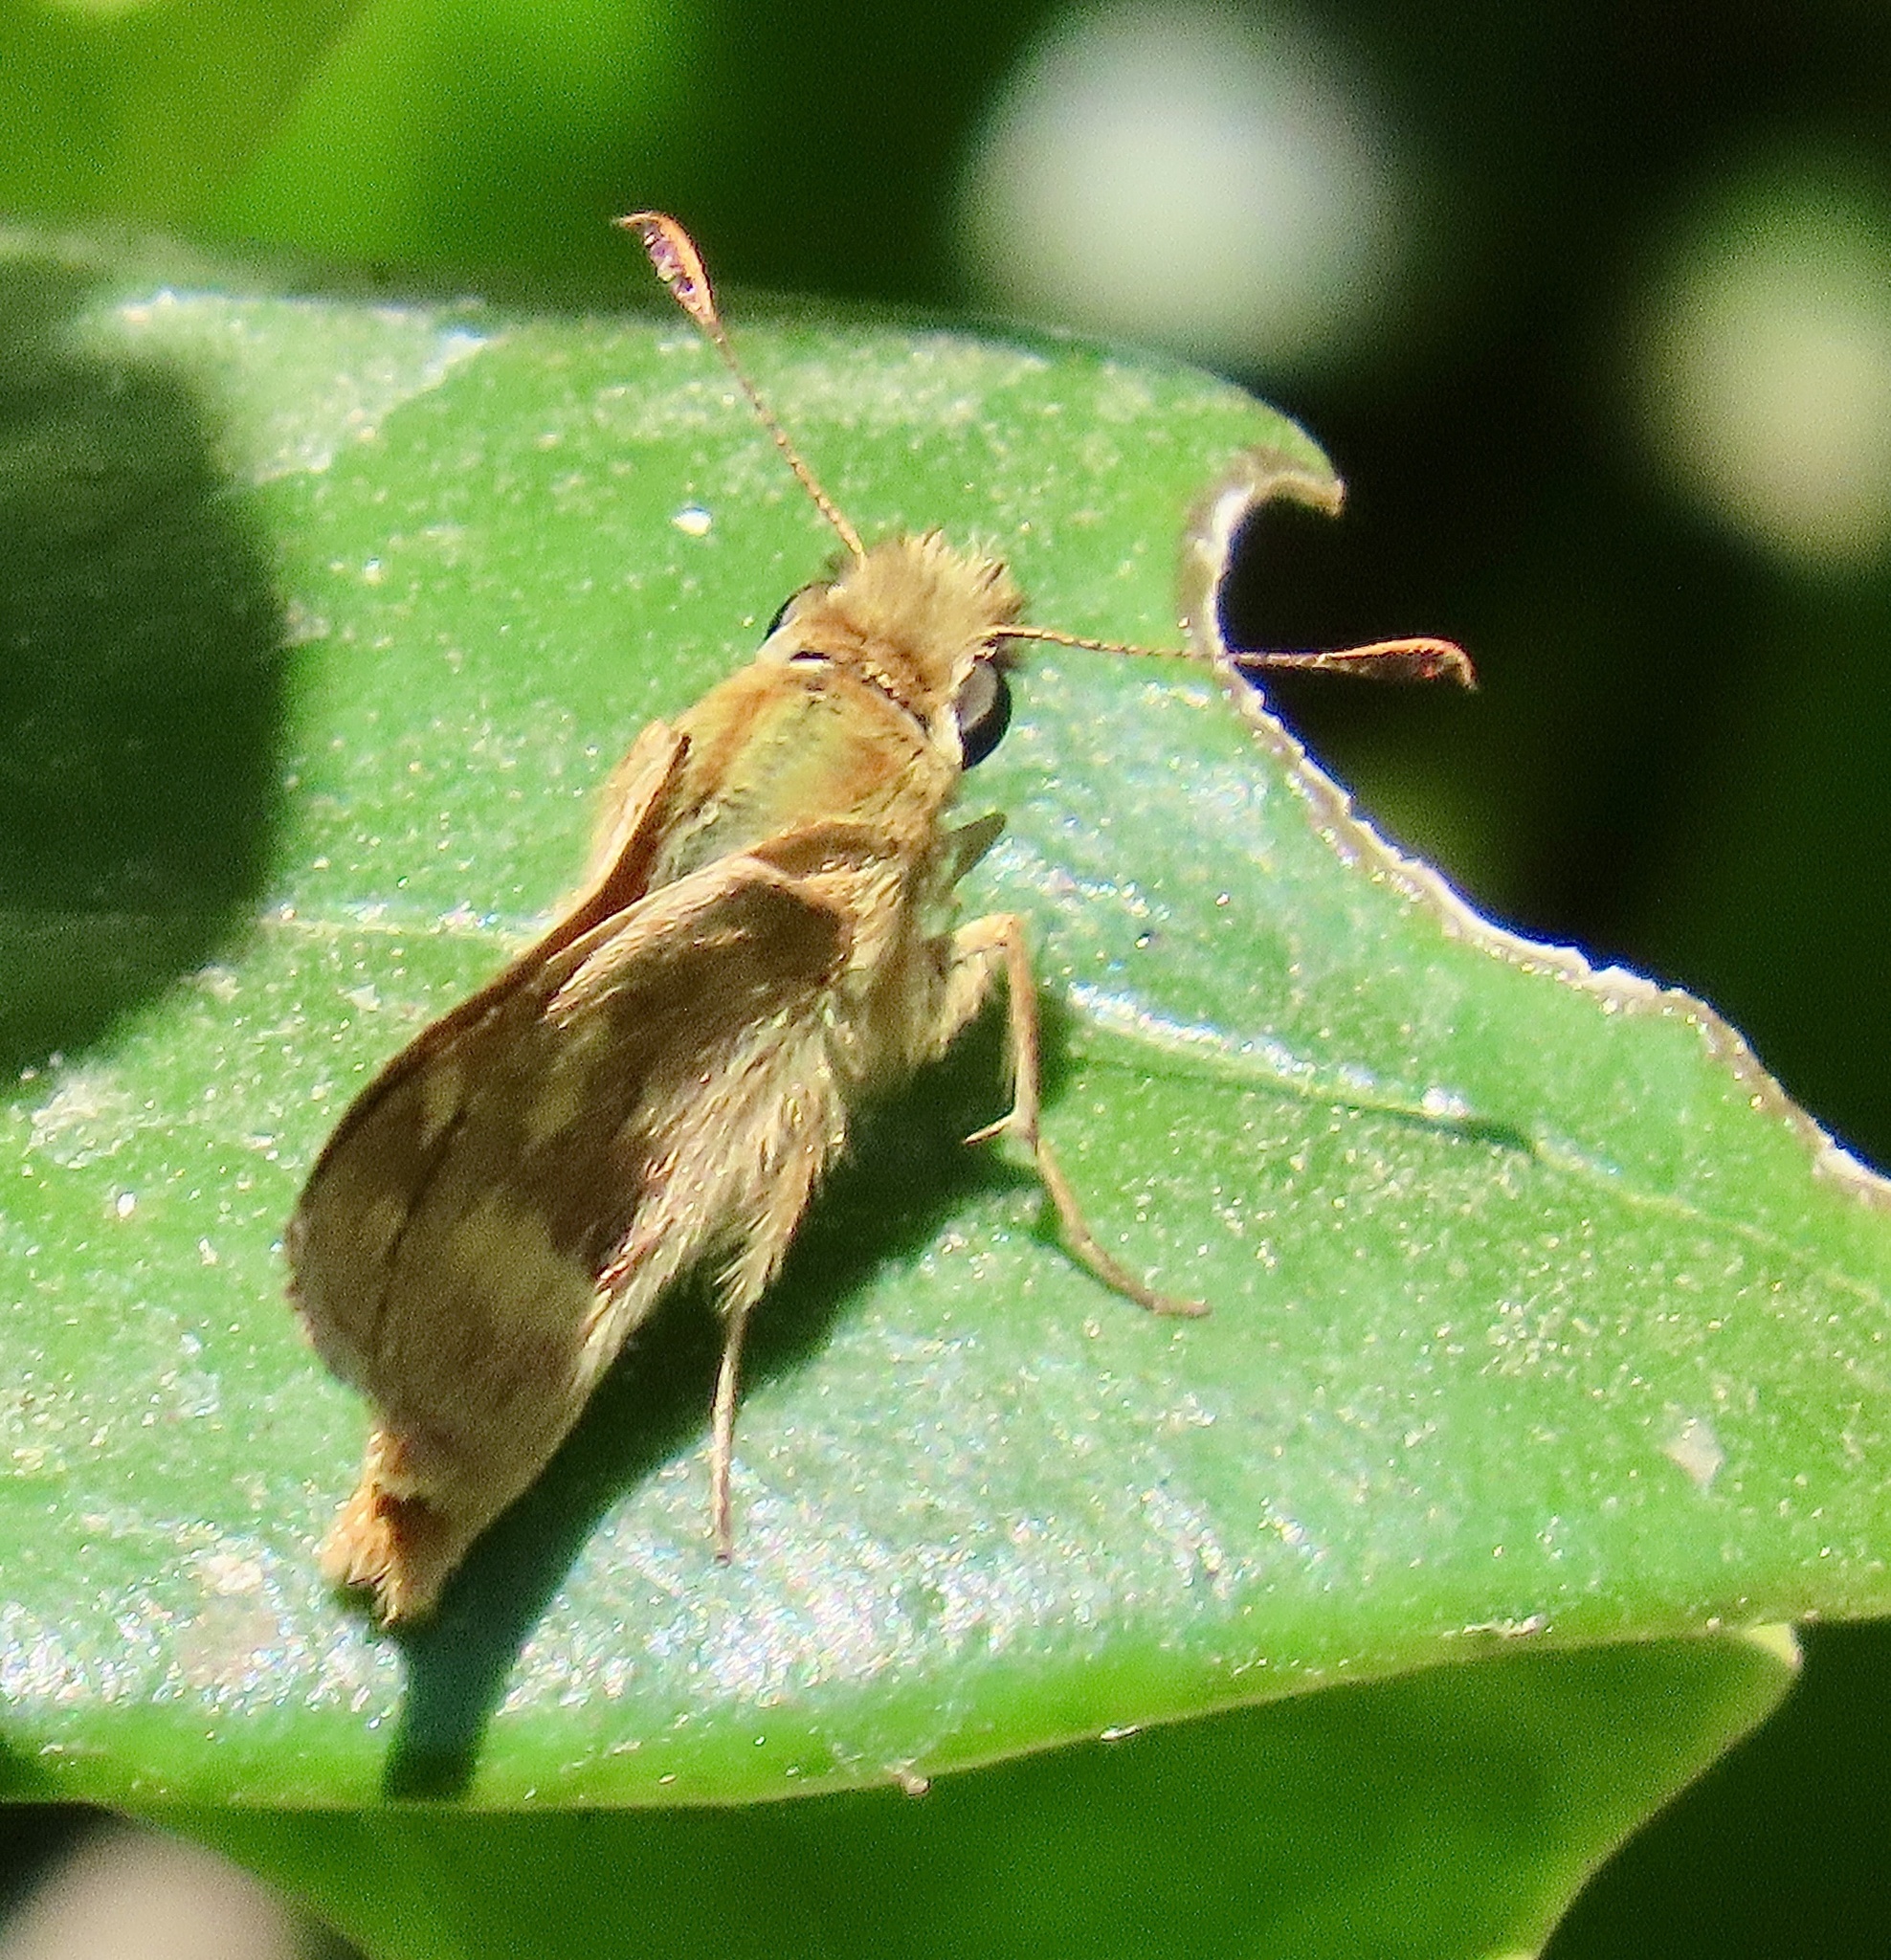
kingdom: Animalia
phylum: Arthropoda
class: Insecta
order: Lepidoptera
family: Hesperiidae
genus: Ochlodes
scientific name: Ochlodes sylvanoides
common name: Woodland skipper
